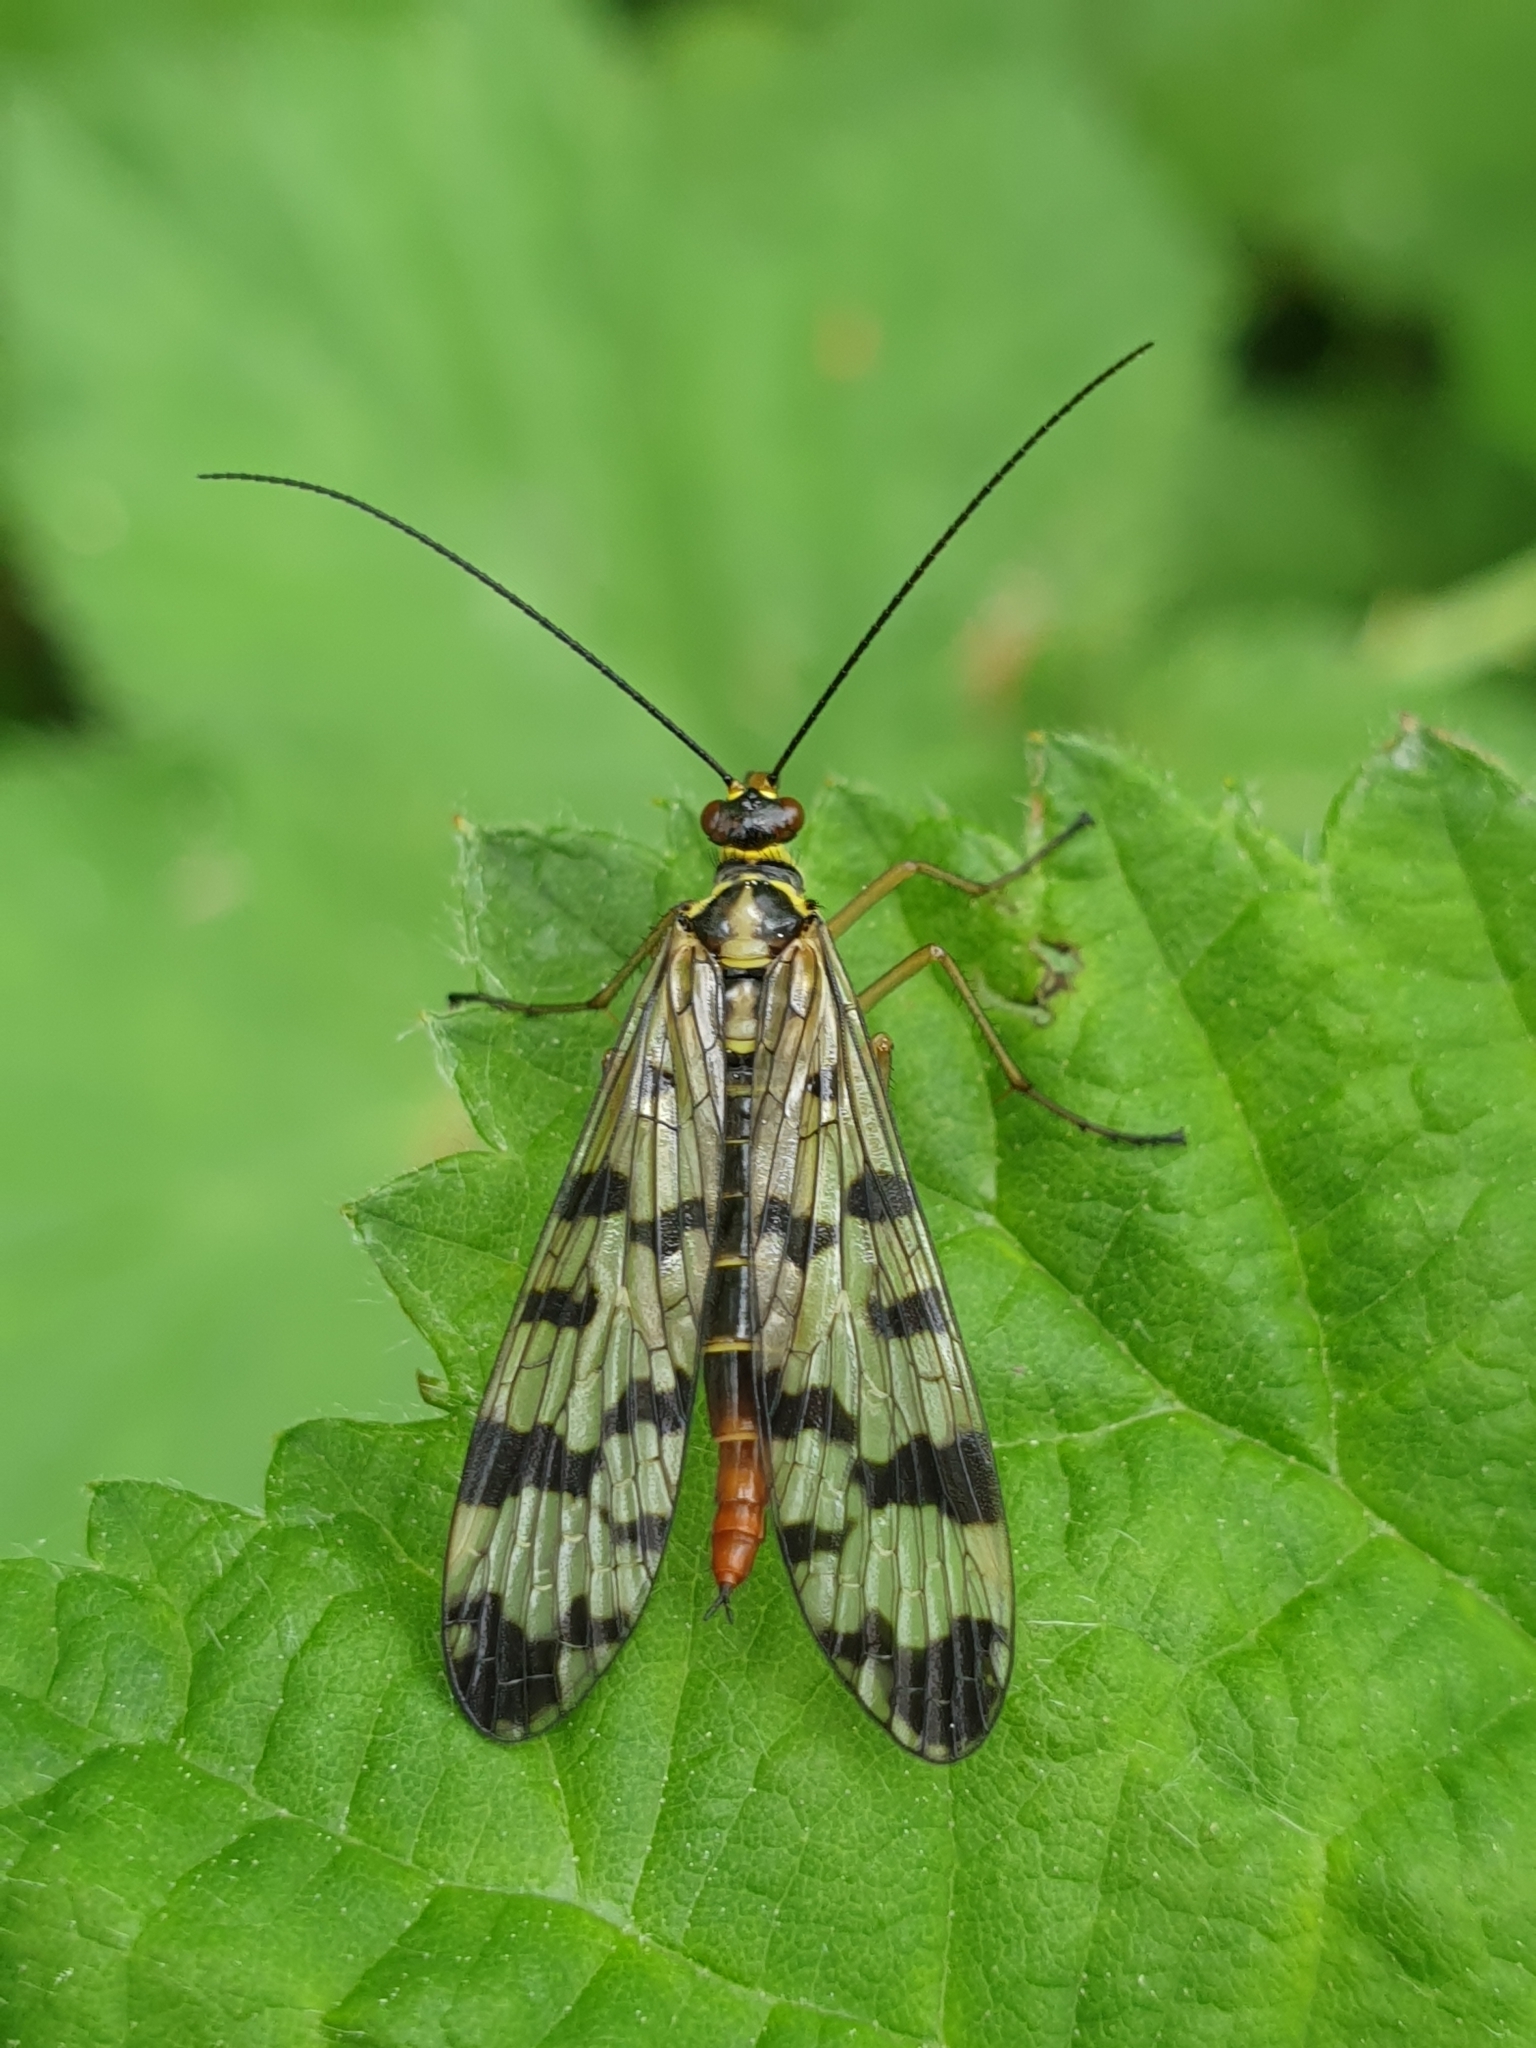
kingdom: Animalia
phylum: Arthropoda
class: Insecta
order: Mecoptera
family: Panorpidae
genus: Panorpa
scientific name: Panorpa communis
